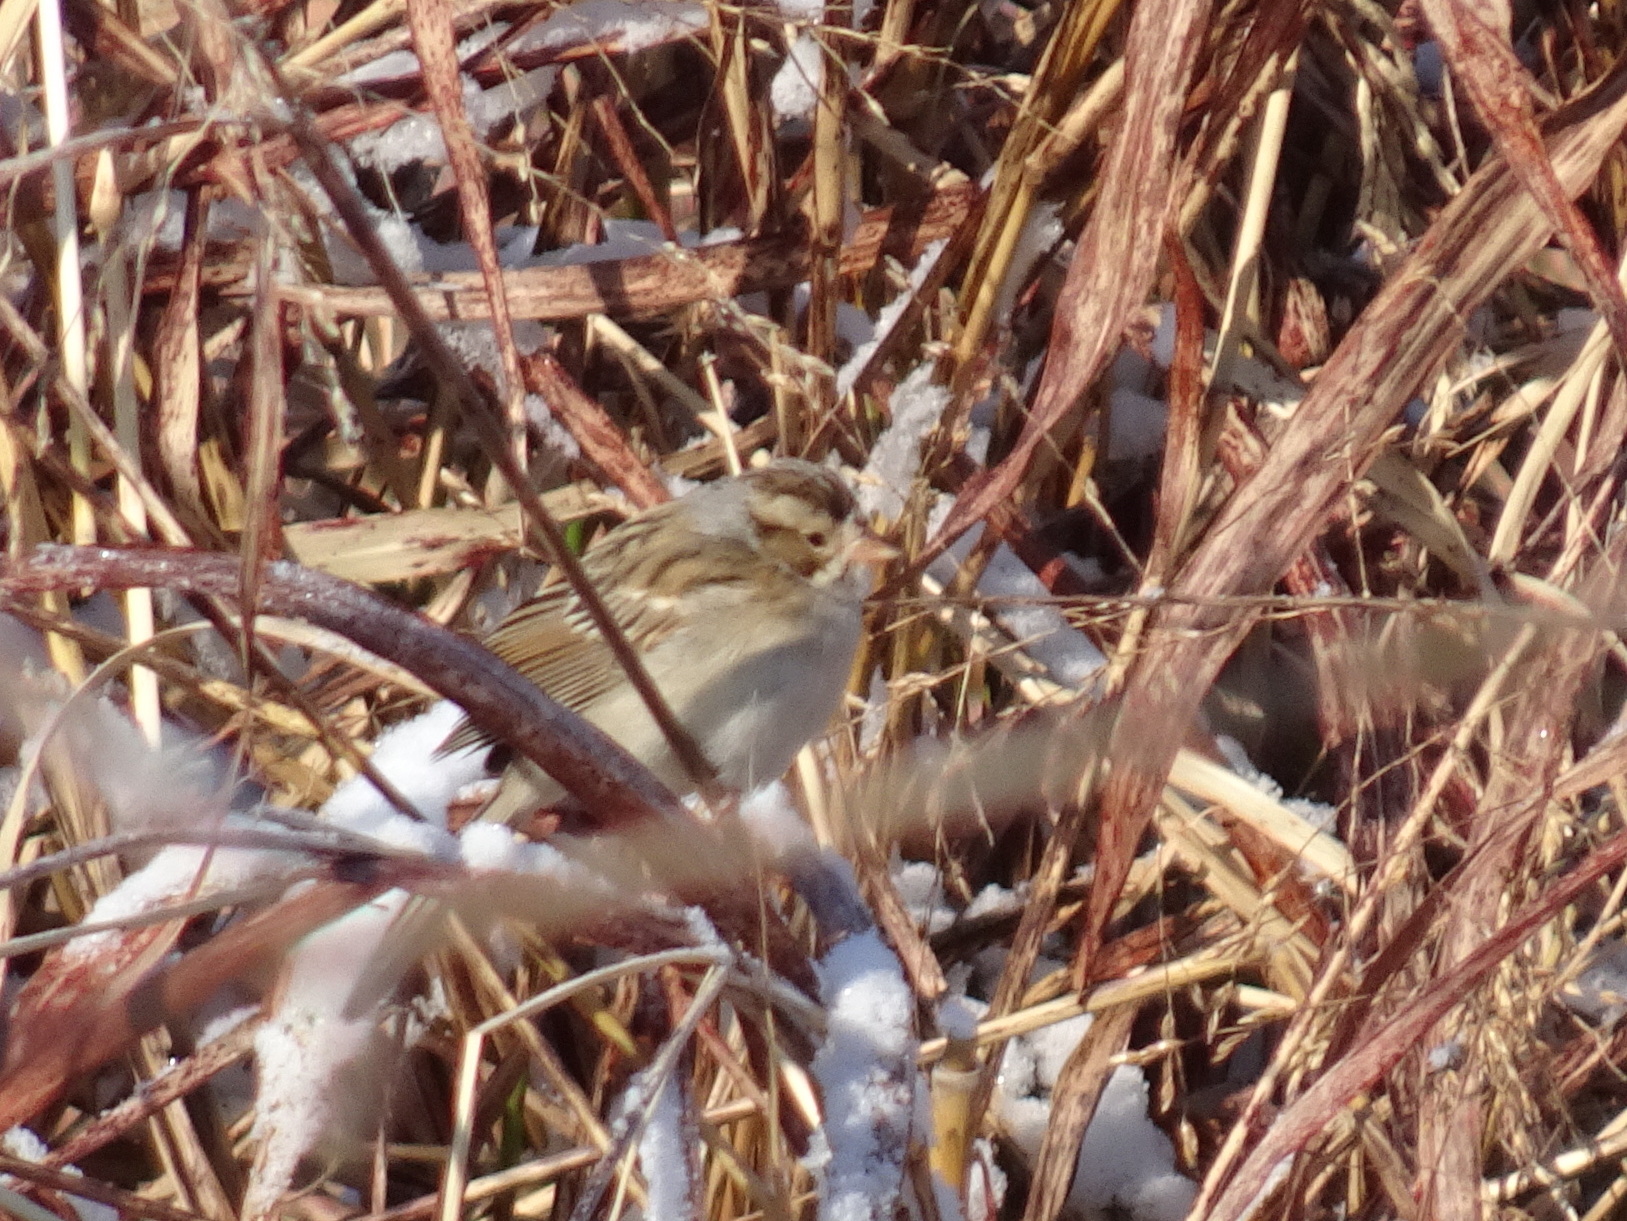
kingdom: Animalia
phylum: Chordata
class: Aves
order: Passeriformes
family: Passerellidae
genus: Spizella
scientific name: Spizella pallida
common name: Clay-colored sparrow
